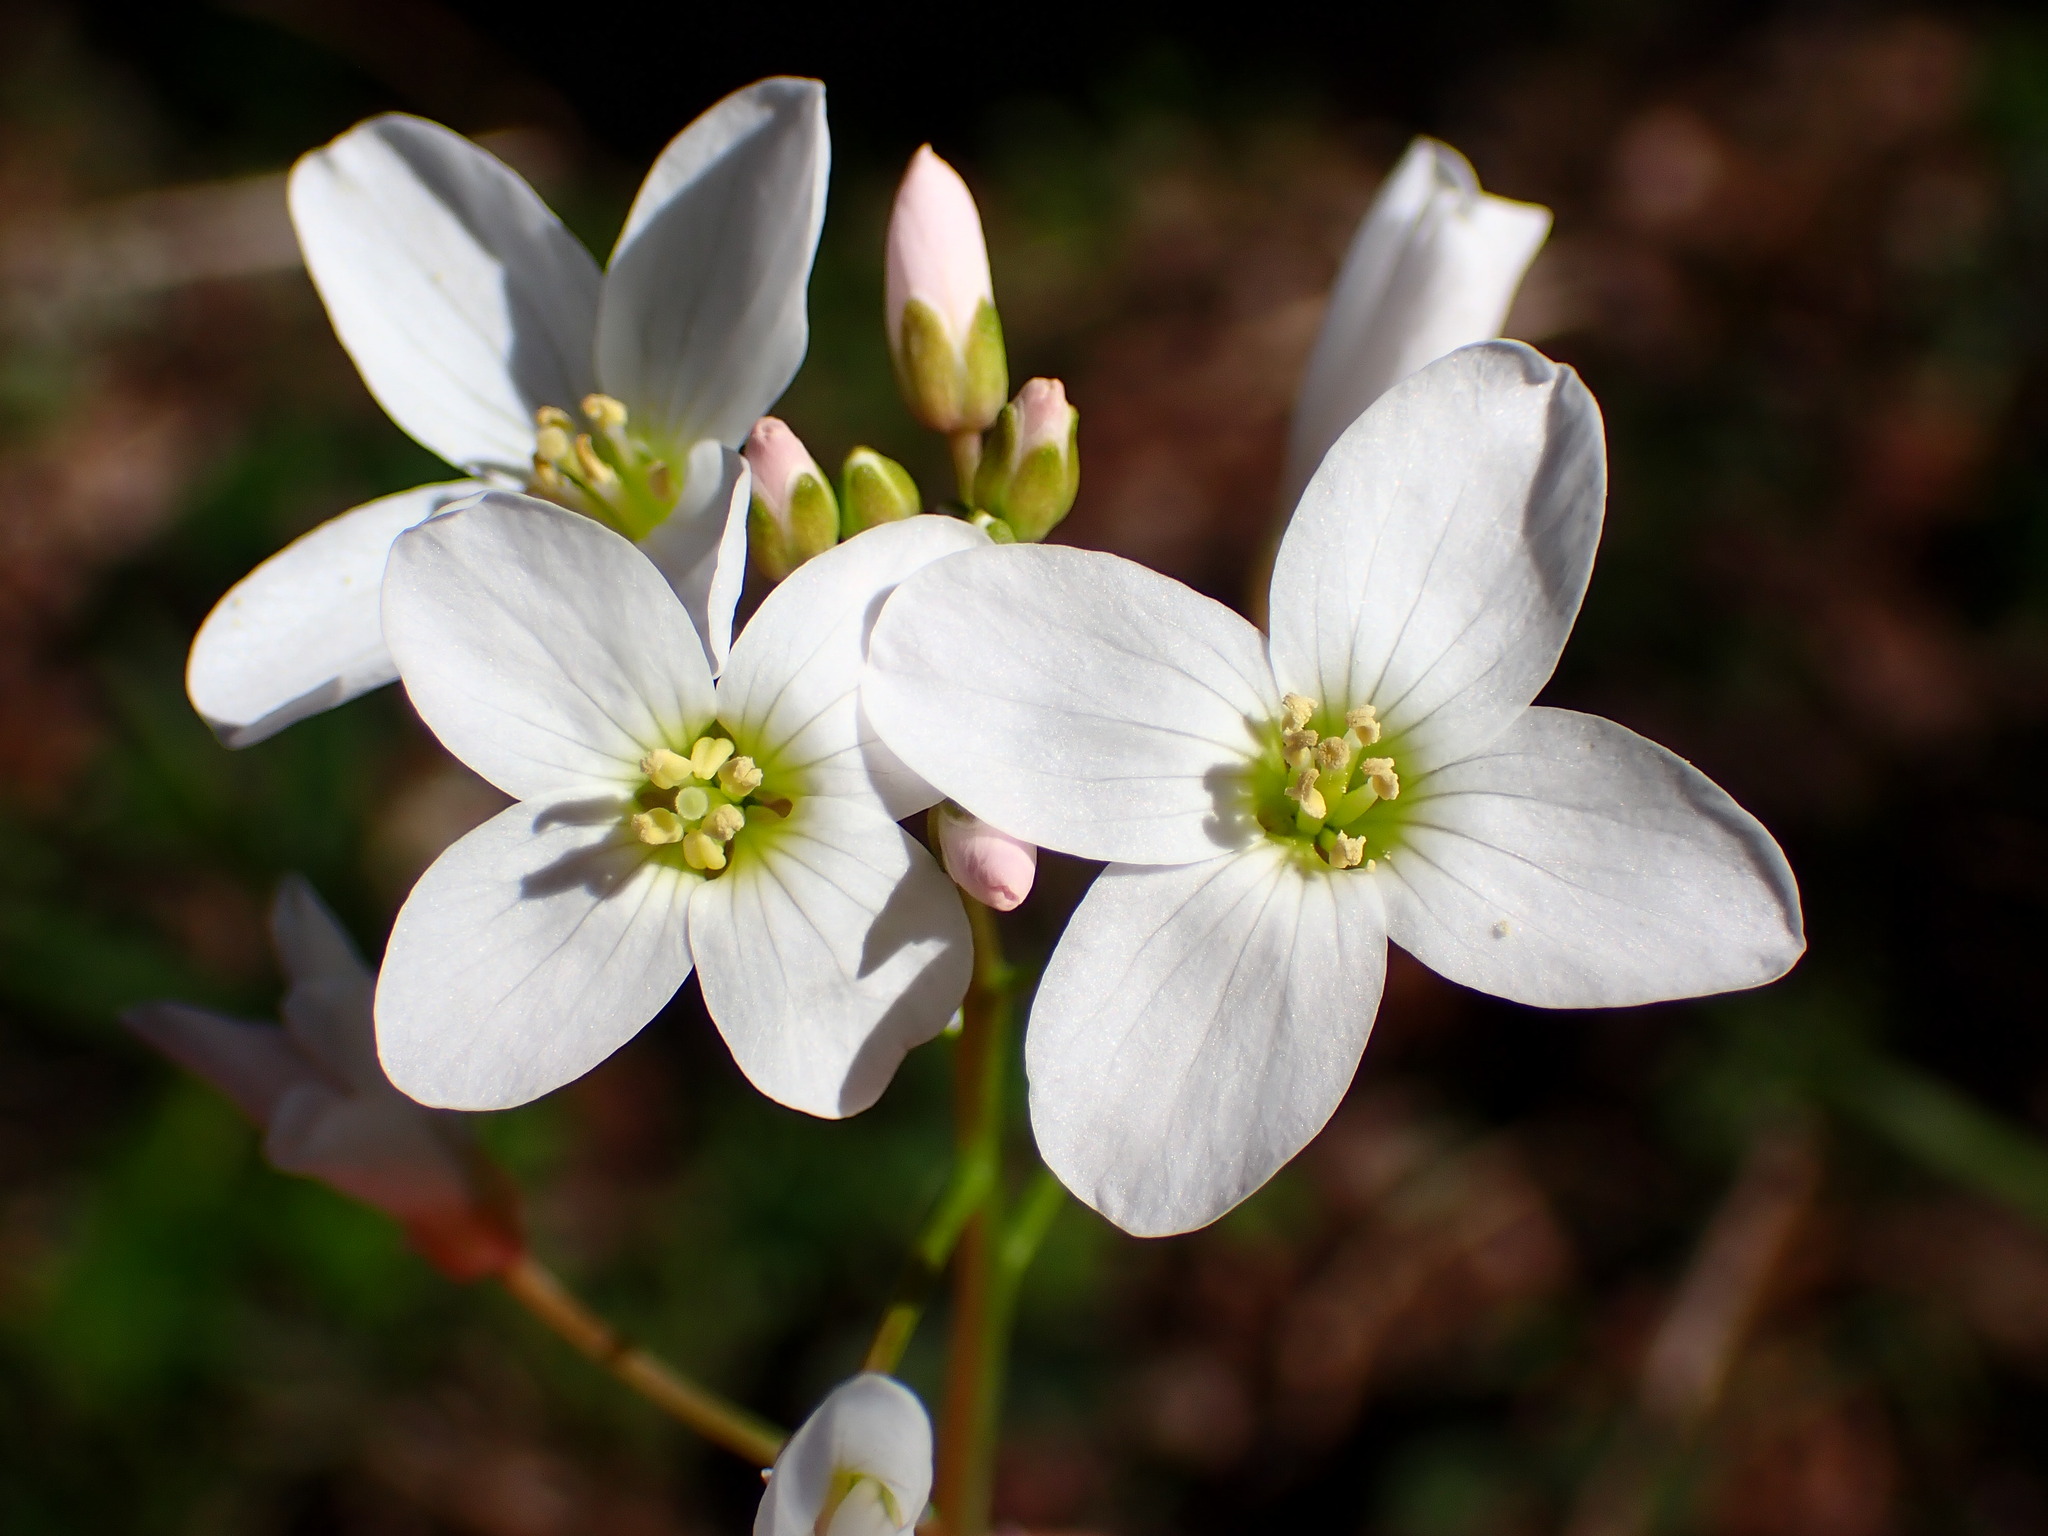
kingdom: Plantae
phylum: Tracheophyta
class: Magnoliopsida
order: Brassicales
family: Brassicaceae
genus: Cardamine
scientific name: Cardamine californica
